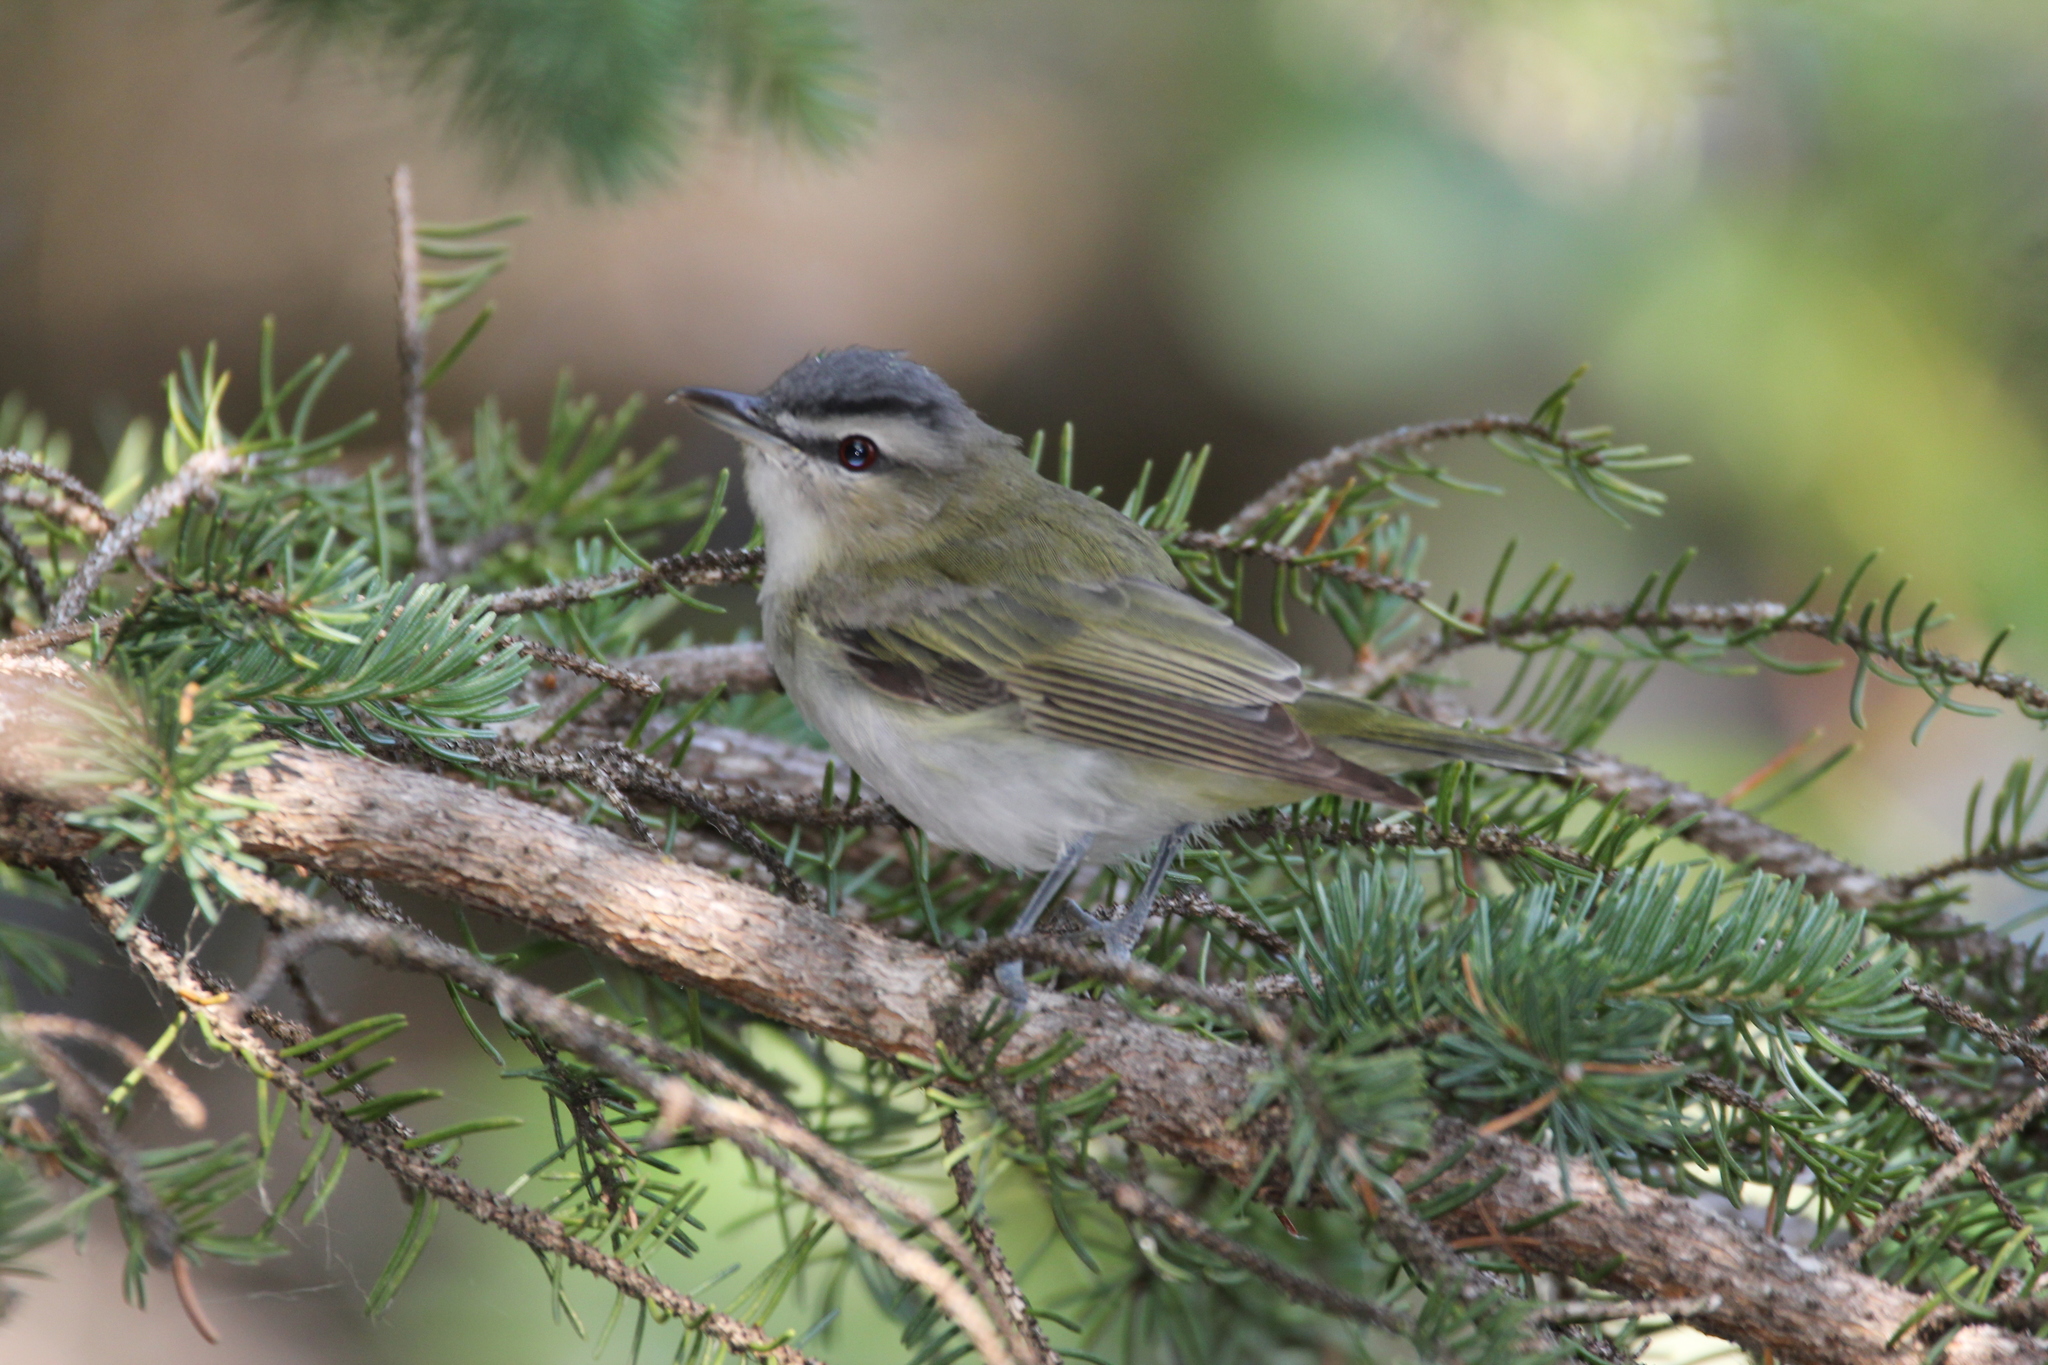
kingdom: Animalia
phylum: Chordata
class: Aves
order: Passeriformes
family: Vireonidae
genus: Vireo
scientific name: Vireo olivaceus
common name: Red-eyed vireo
